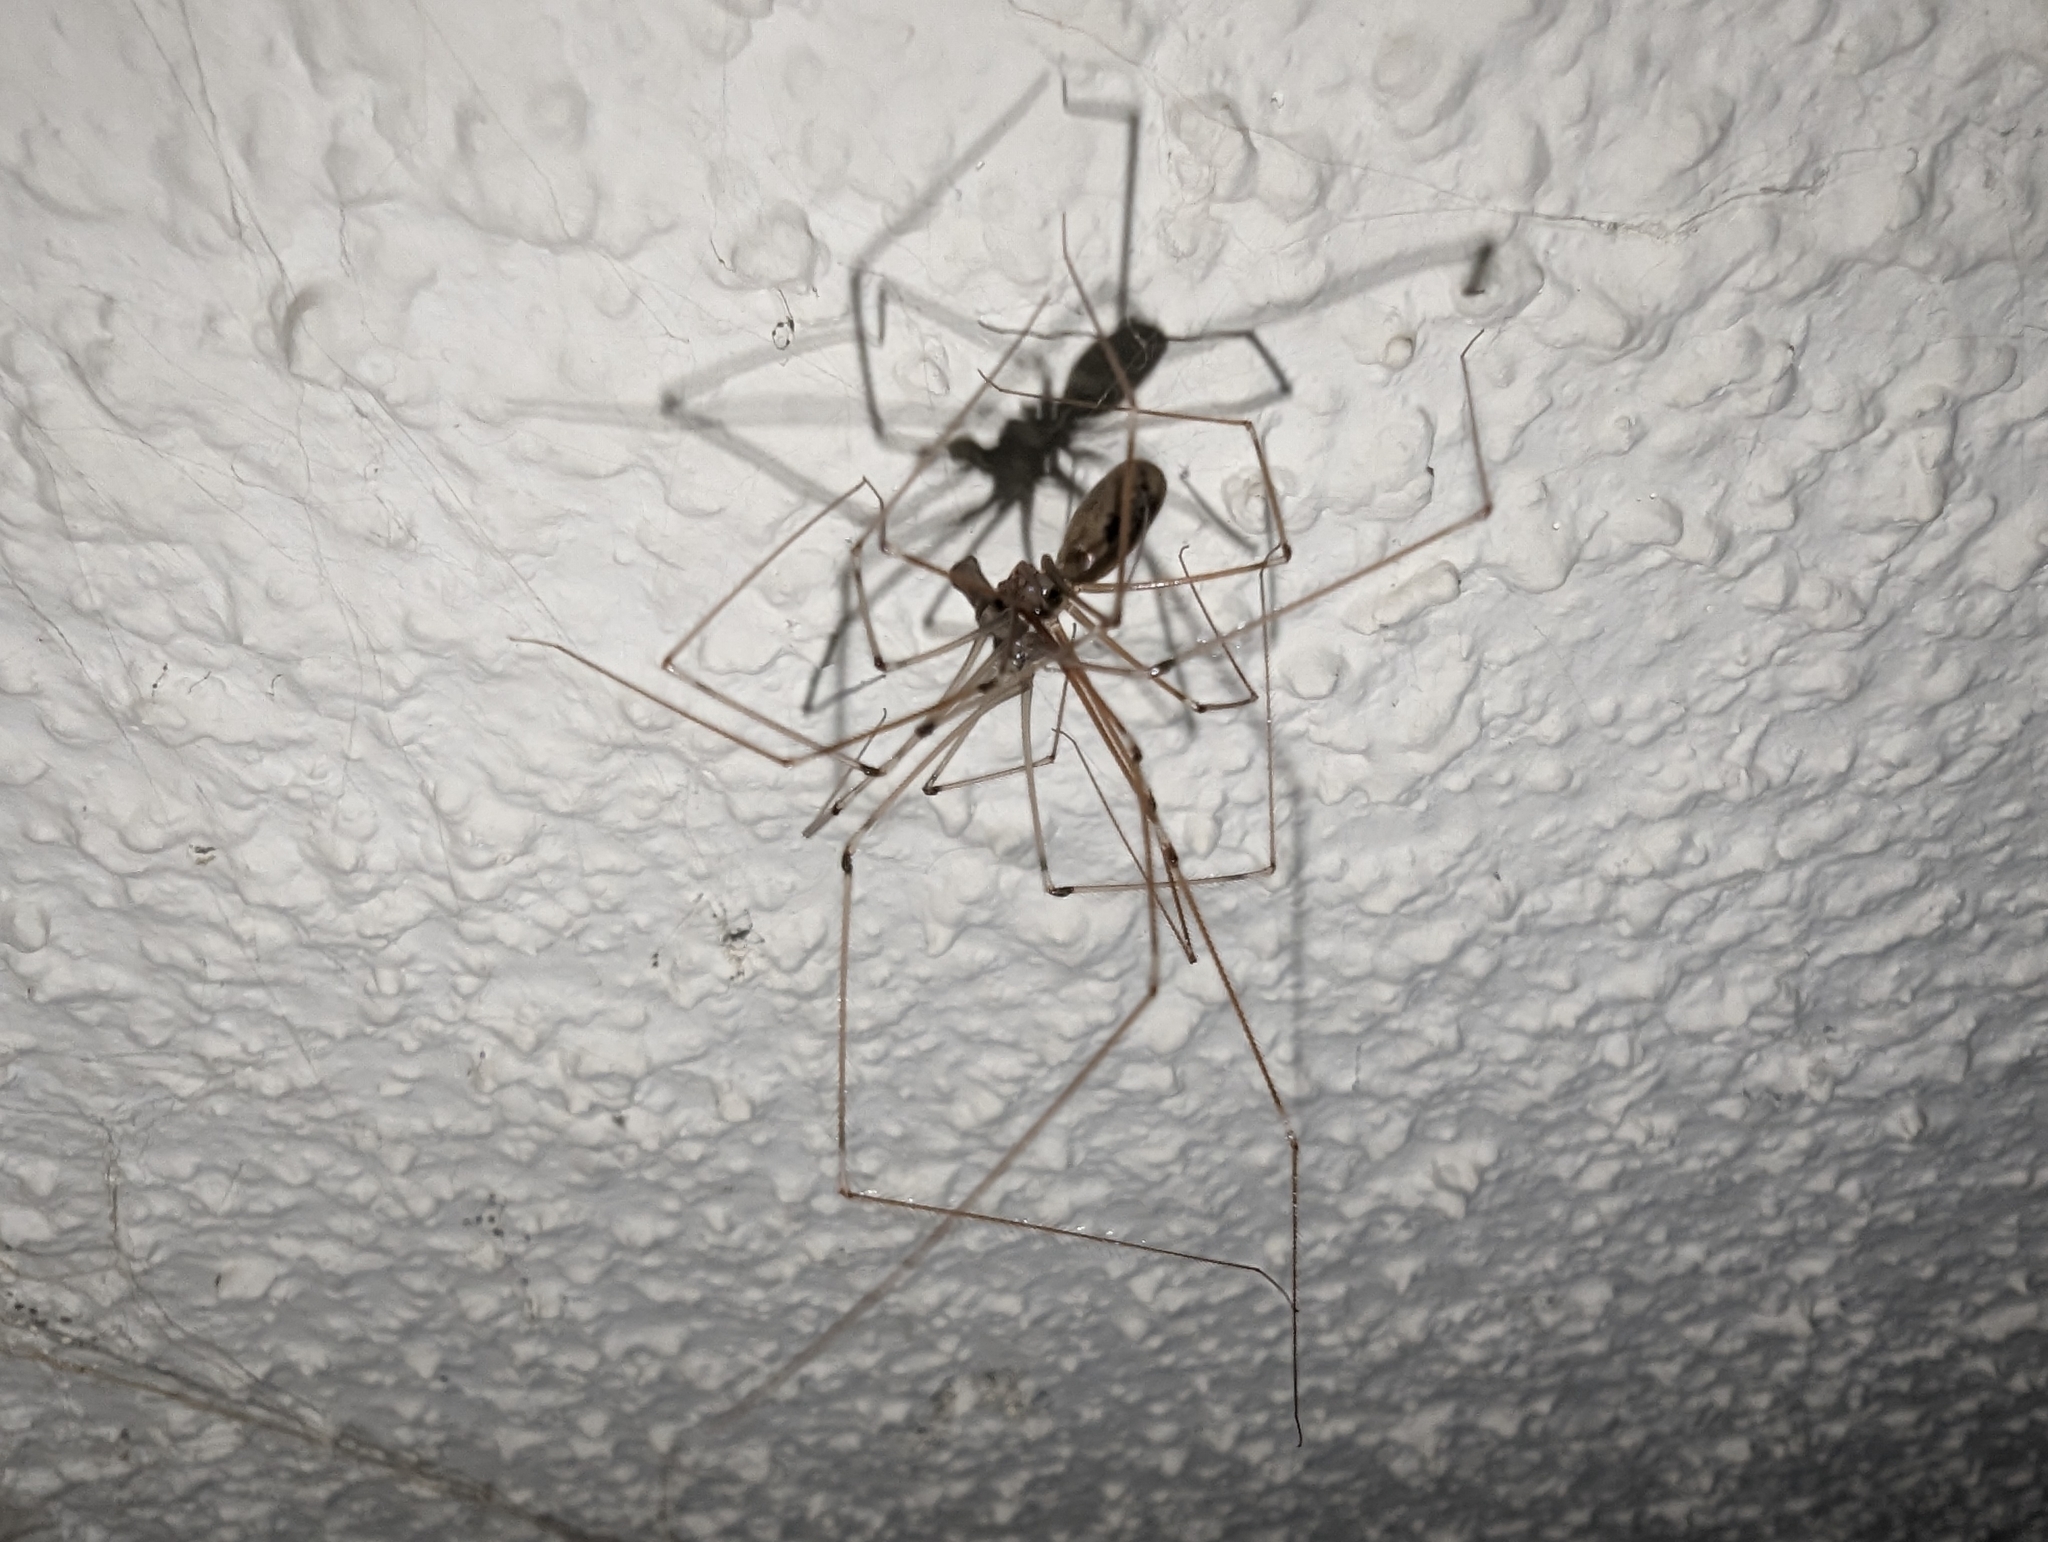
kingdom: Animalia
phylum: Arthropoda
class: Arachnida
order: Araneae
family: Pholcidae
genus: Pholcus
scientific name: Pholcus phalangioides
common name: Longbodied cellar spider
